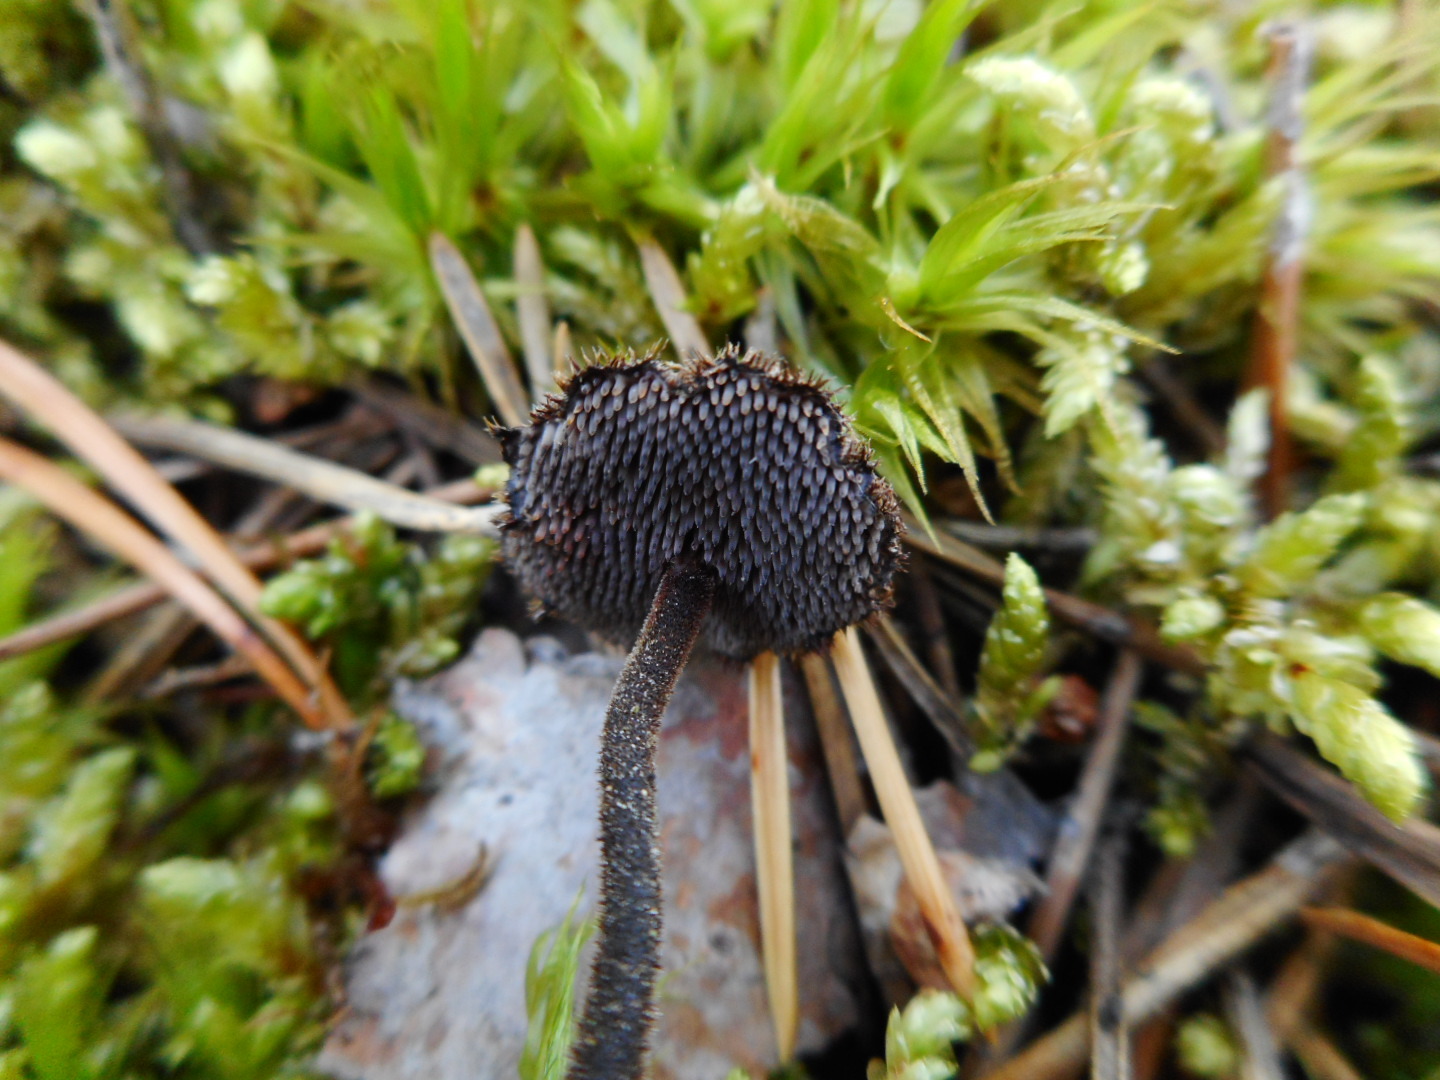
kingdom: Fungi
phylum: Basidiomycota
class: Agaricomycetes
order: Russulales
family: Auriscalpiaceae
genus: Auriscalpium
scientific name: Auriscalpium vulgare
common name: Earpick fungus
